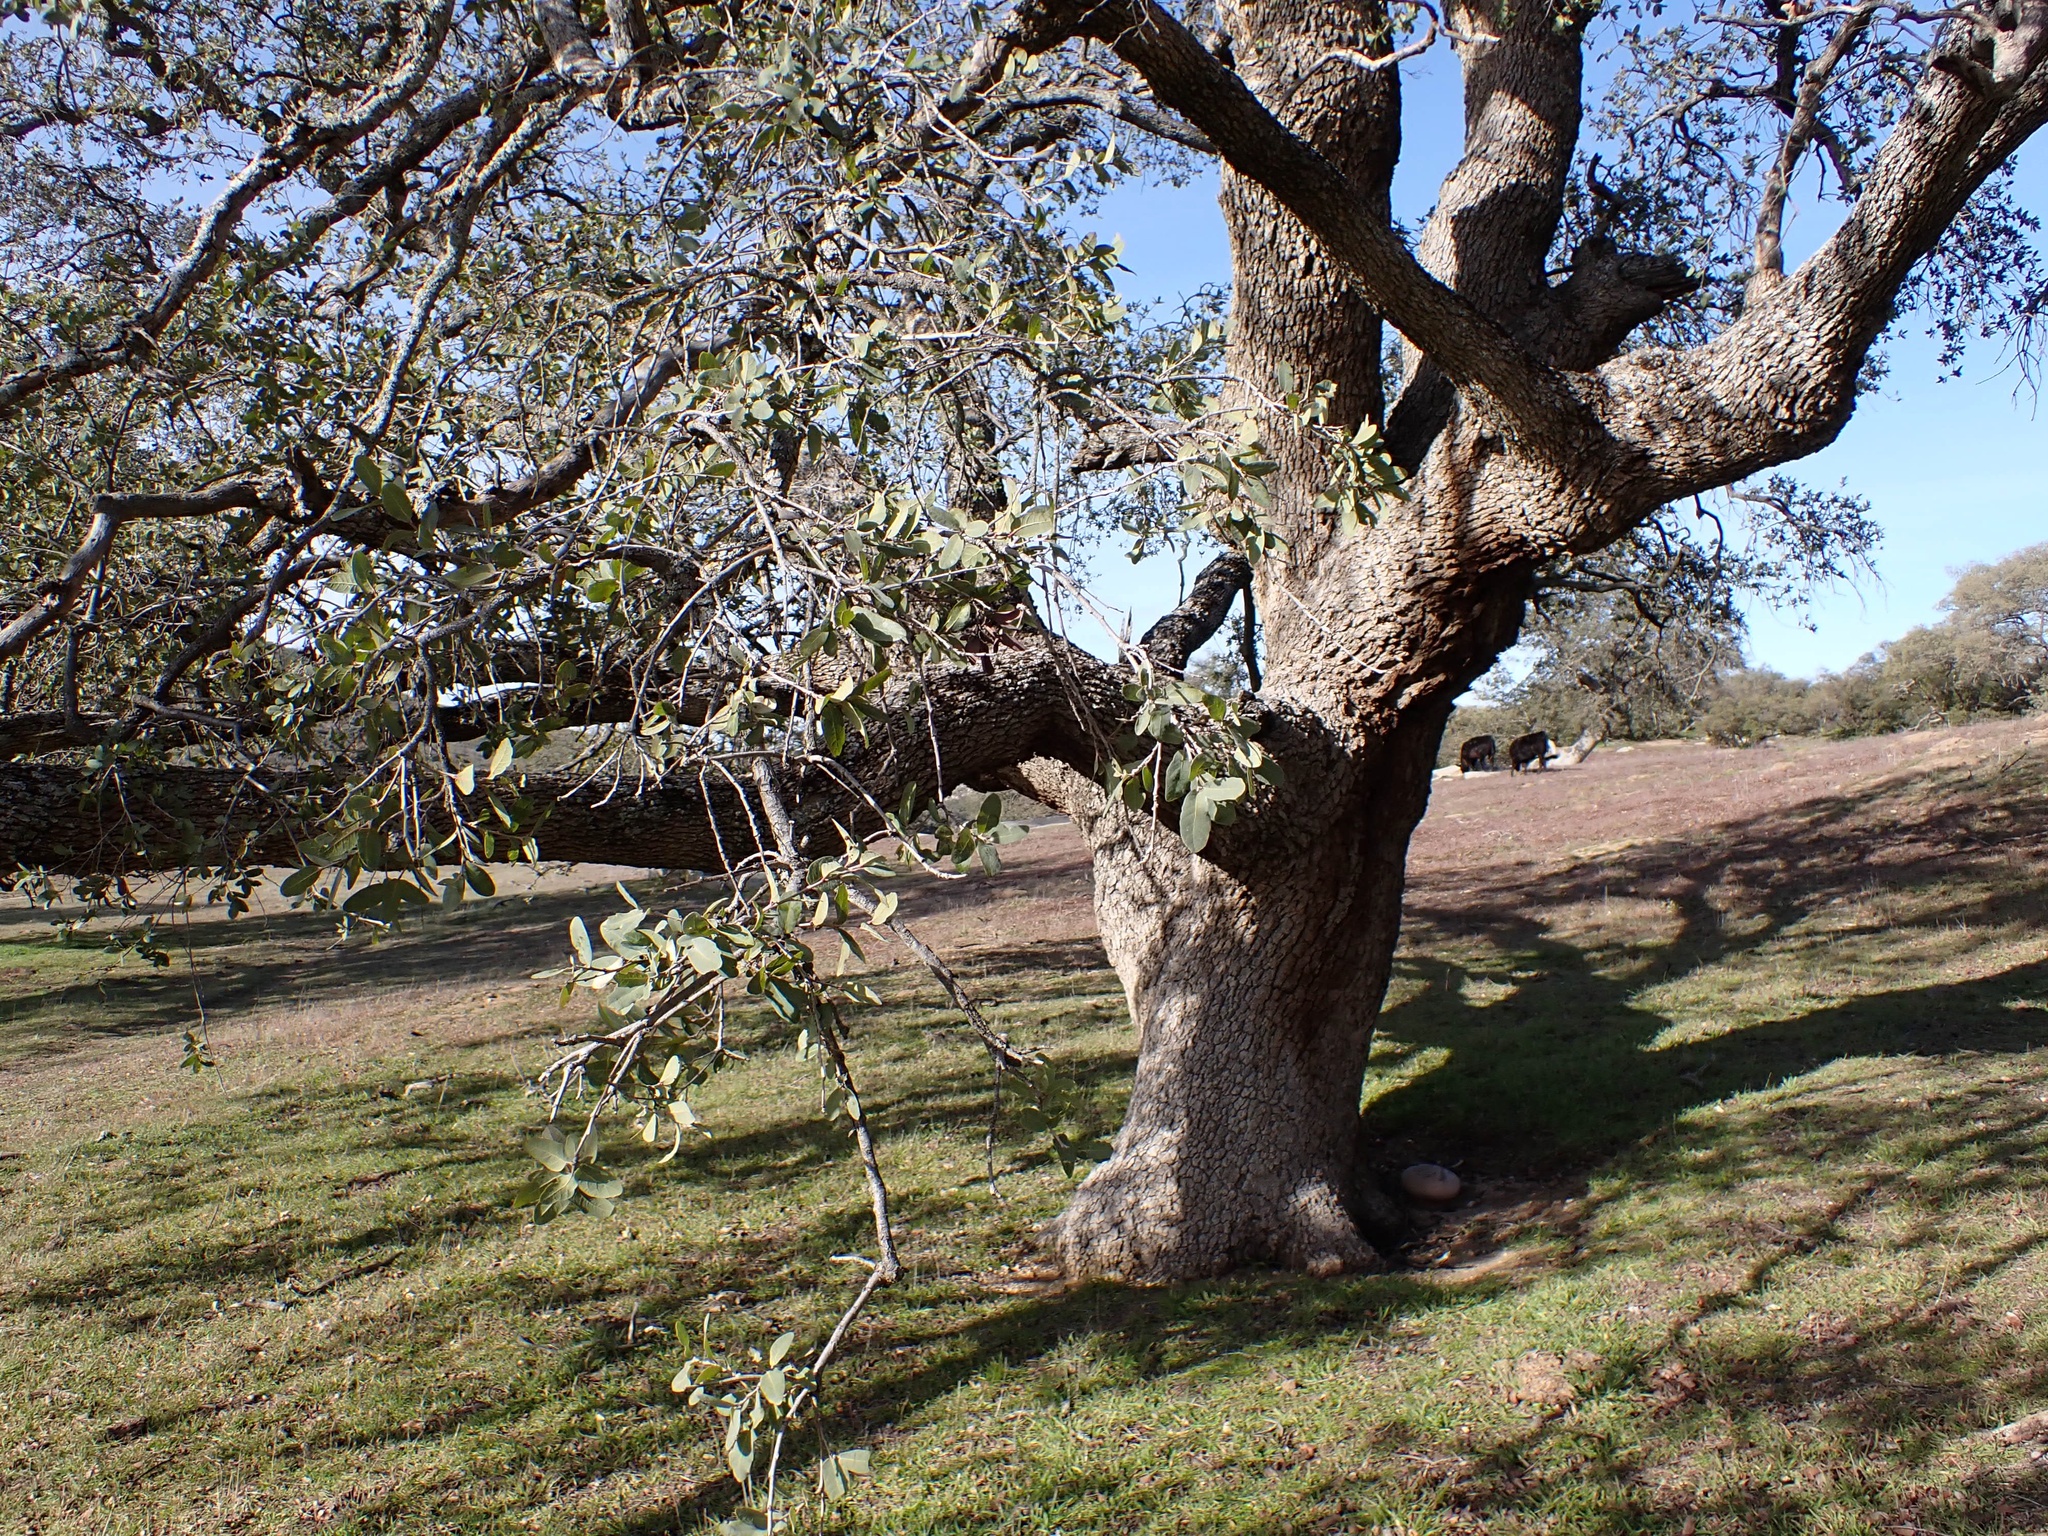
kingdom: Plantae
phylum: Tracheophyta
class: Magnoliopsida
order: Fagales
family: Fagaceae
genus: Quercus
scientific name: Quercus engelmannii
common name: Engelmann oak
